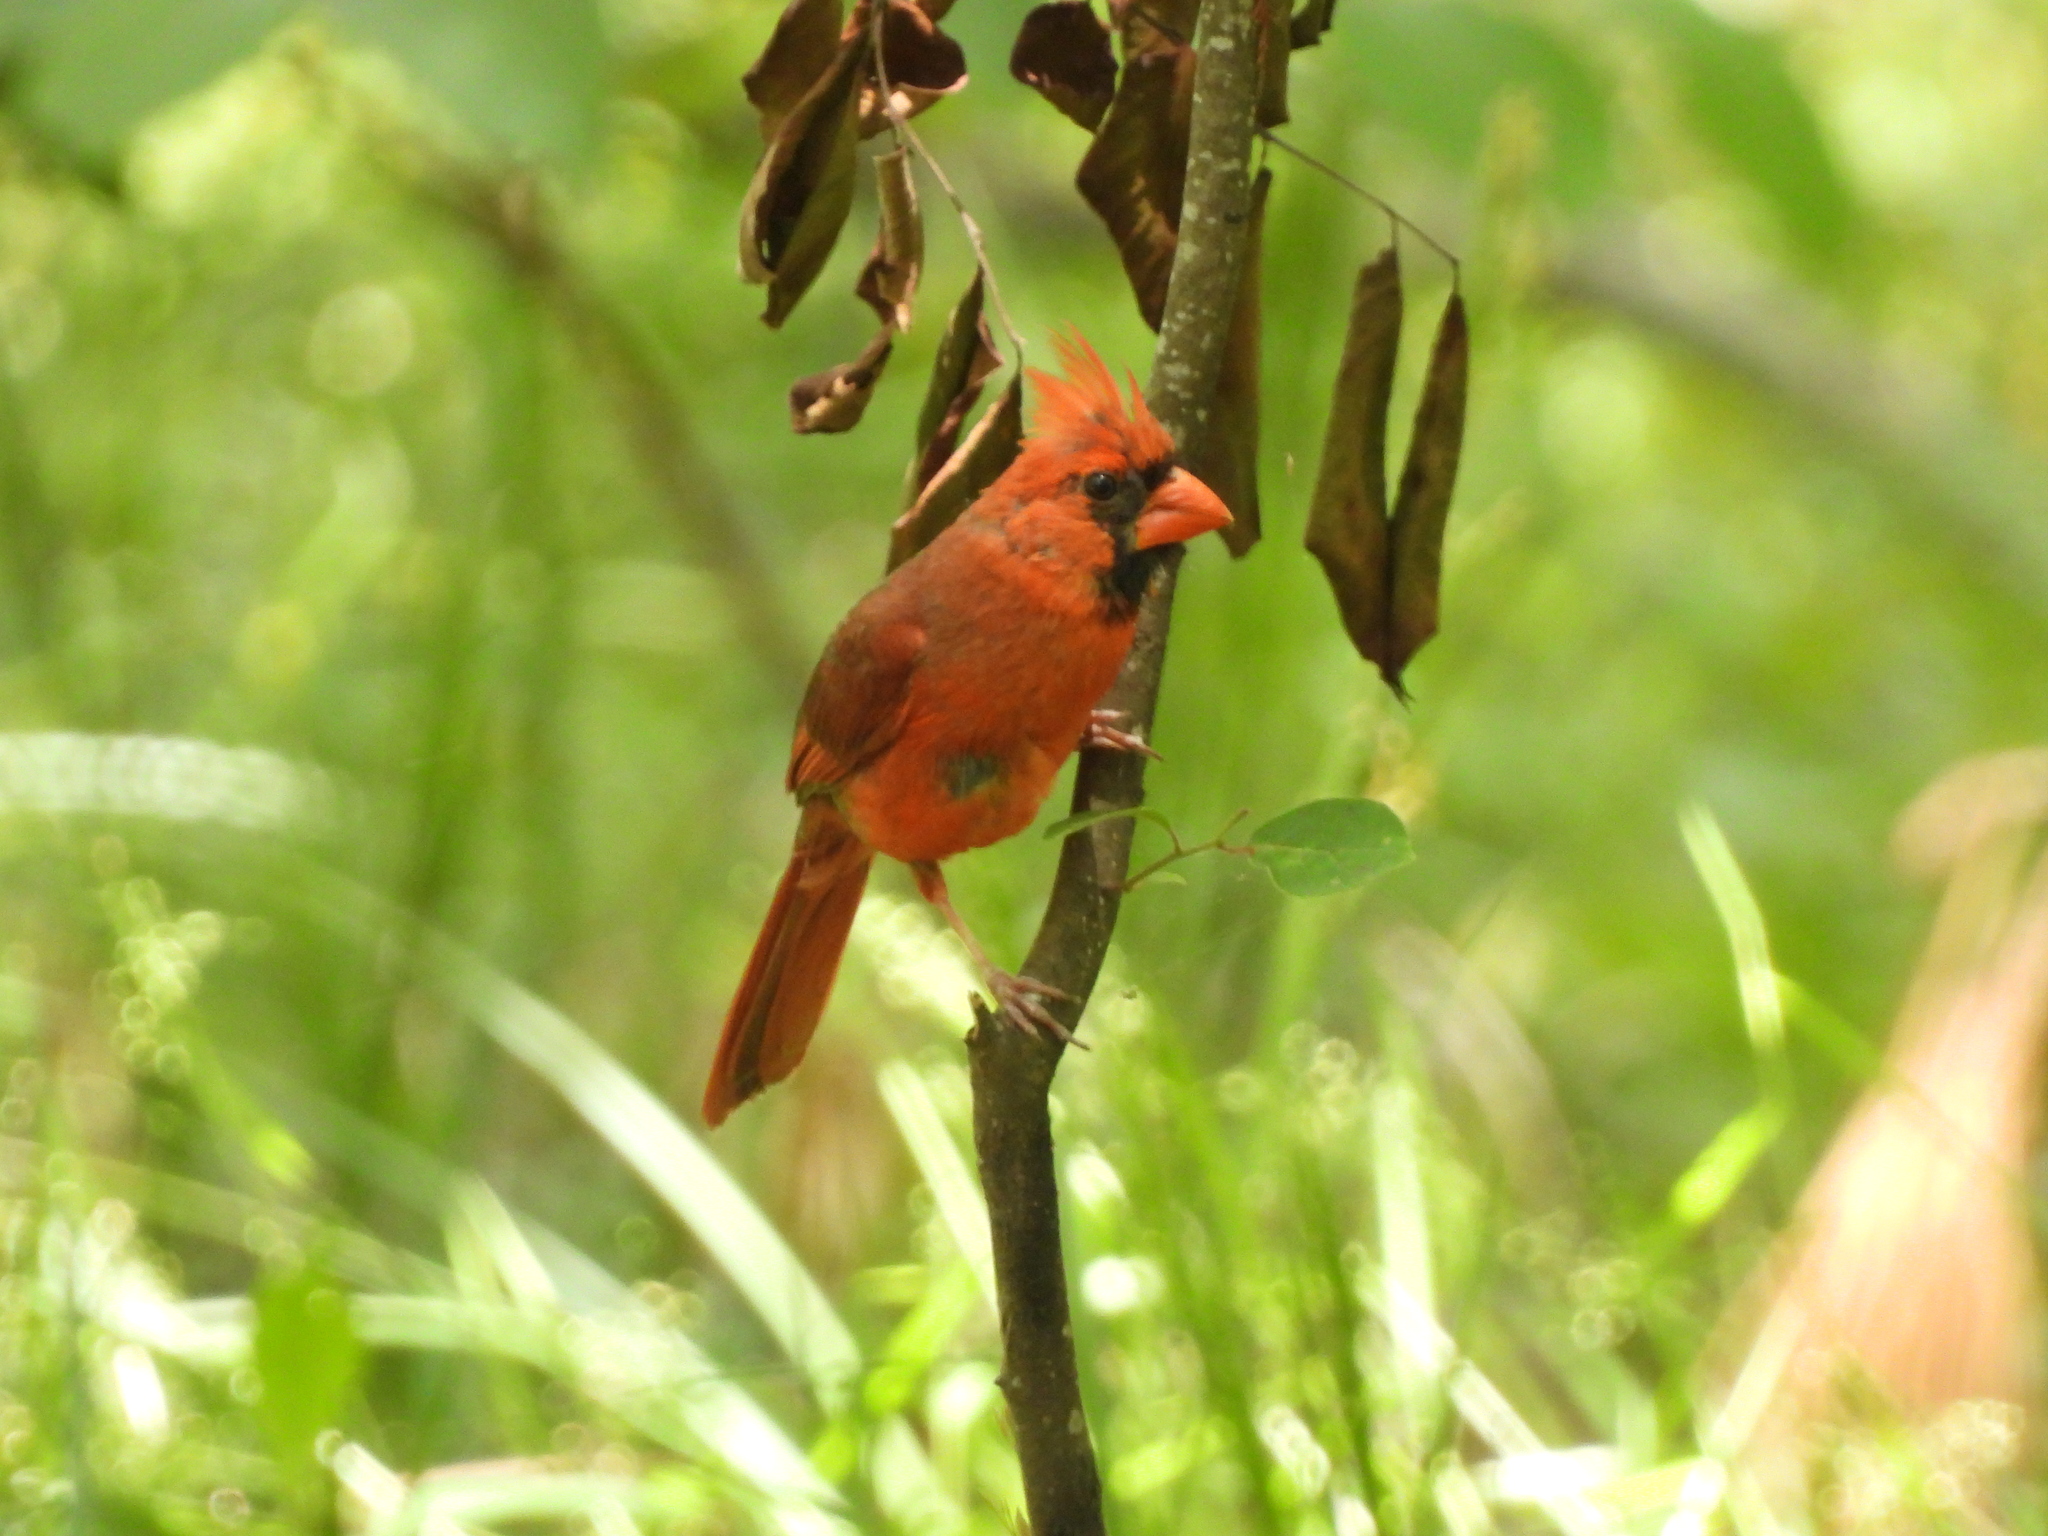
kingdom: Animalia
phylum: Chordata
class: Aves
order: Passeriformes
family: Cardinalidae
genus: Cardinalis
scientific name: Cardinalis cardinalis
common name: Northern cardinal
